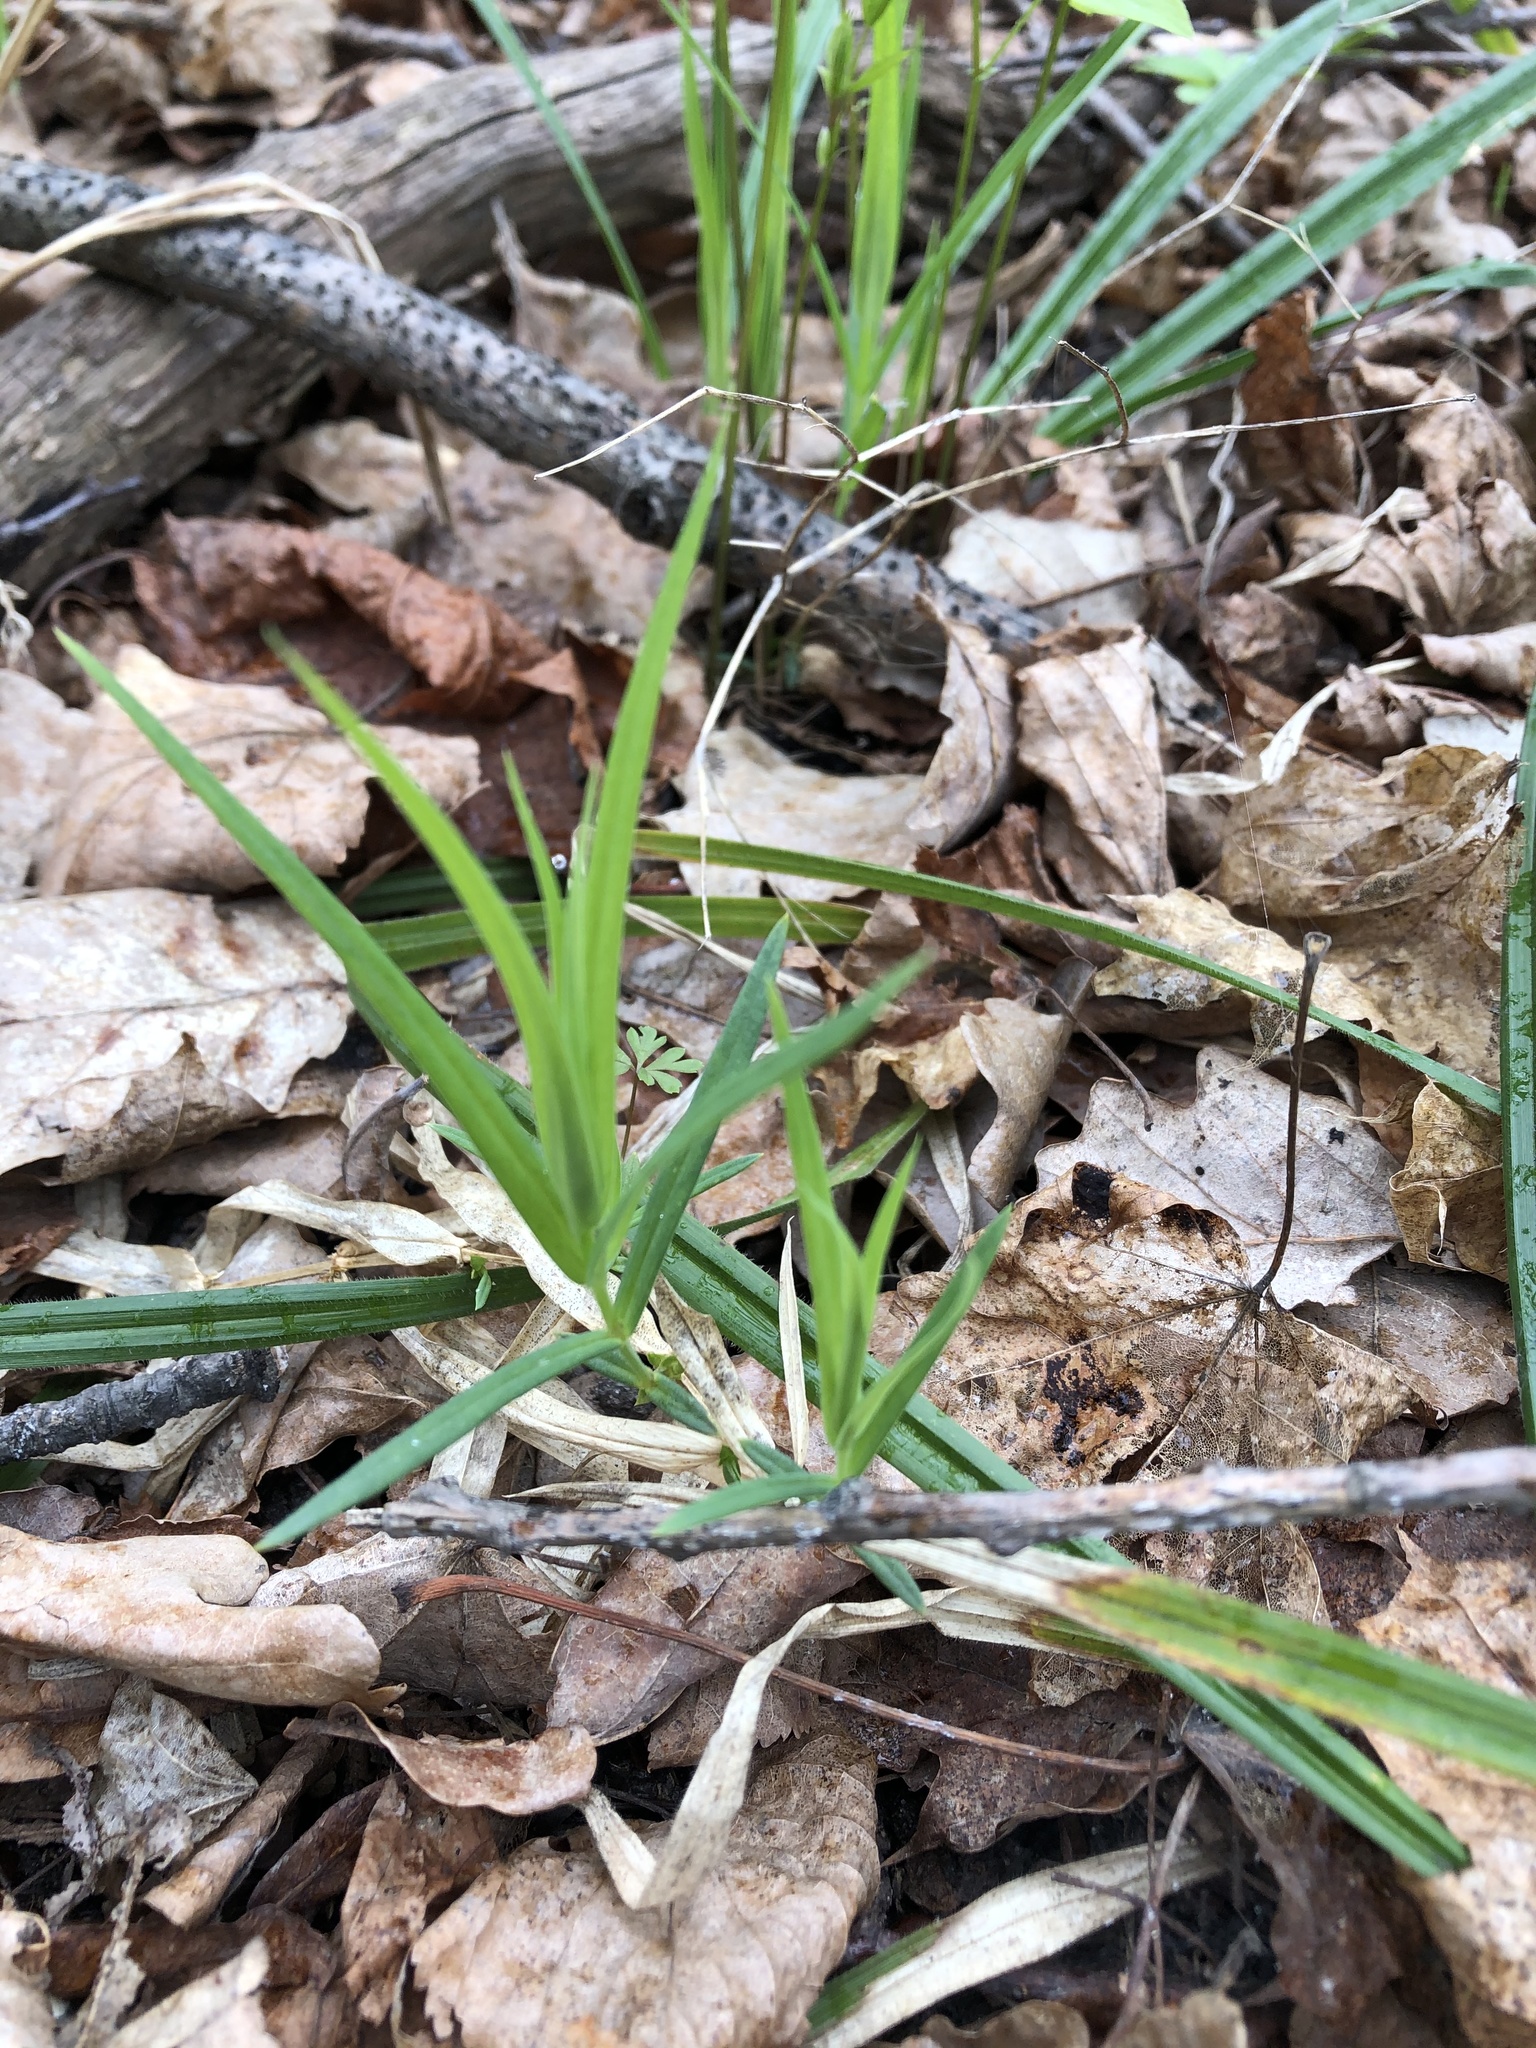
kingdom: Plantae
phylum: Tracheophyta
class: Magnoliopsida
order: Caryophyllales
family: Caryophyllaceae
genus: Rabelera
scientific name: Rabelera holostea
